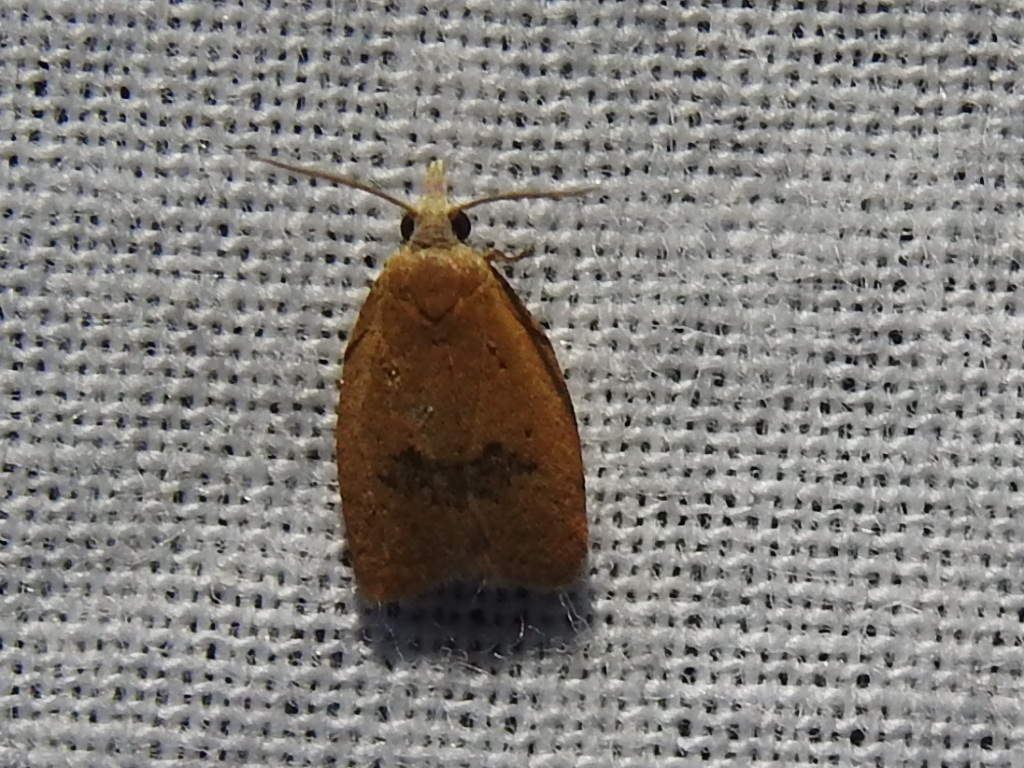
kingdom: Animalia
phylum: Arthropoda
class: Insecta
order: Lepidoptera
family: Tortricidae
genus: Sparganothoides
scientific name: Sparganothoides lentiginosana
